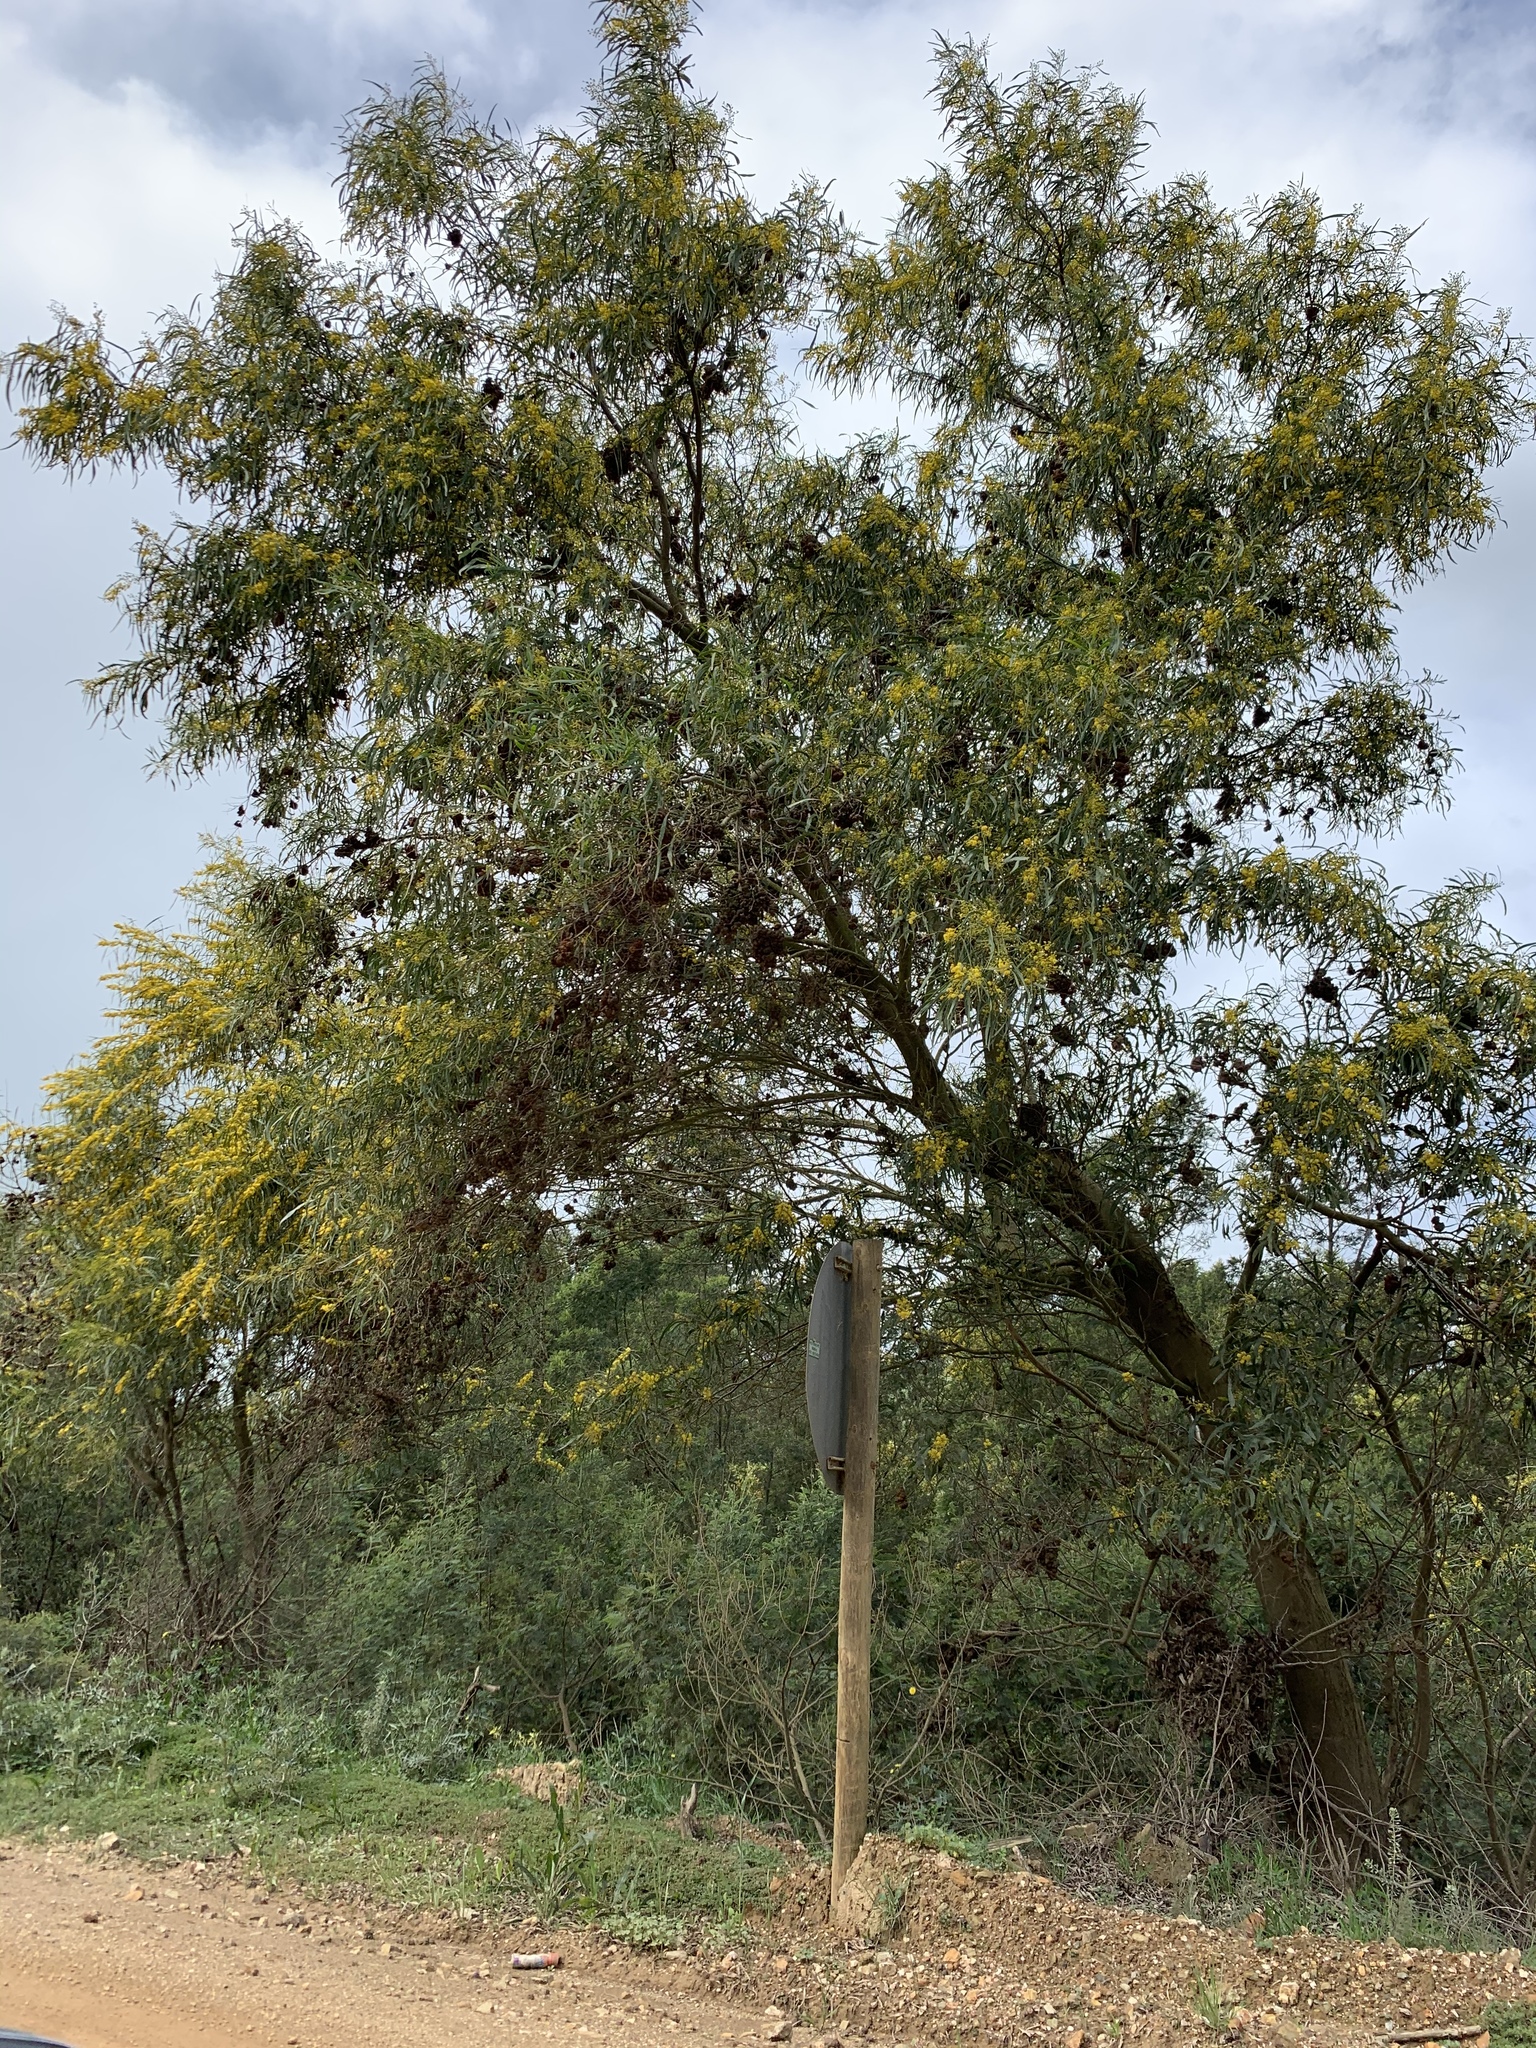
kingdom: Plantae
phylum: Tracheophyta
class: Magnoliopsida
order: Fabales
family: Fabaceae
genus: Acacia
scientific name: Acacia saligna
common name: Orange wattle
